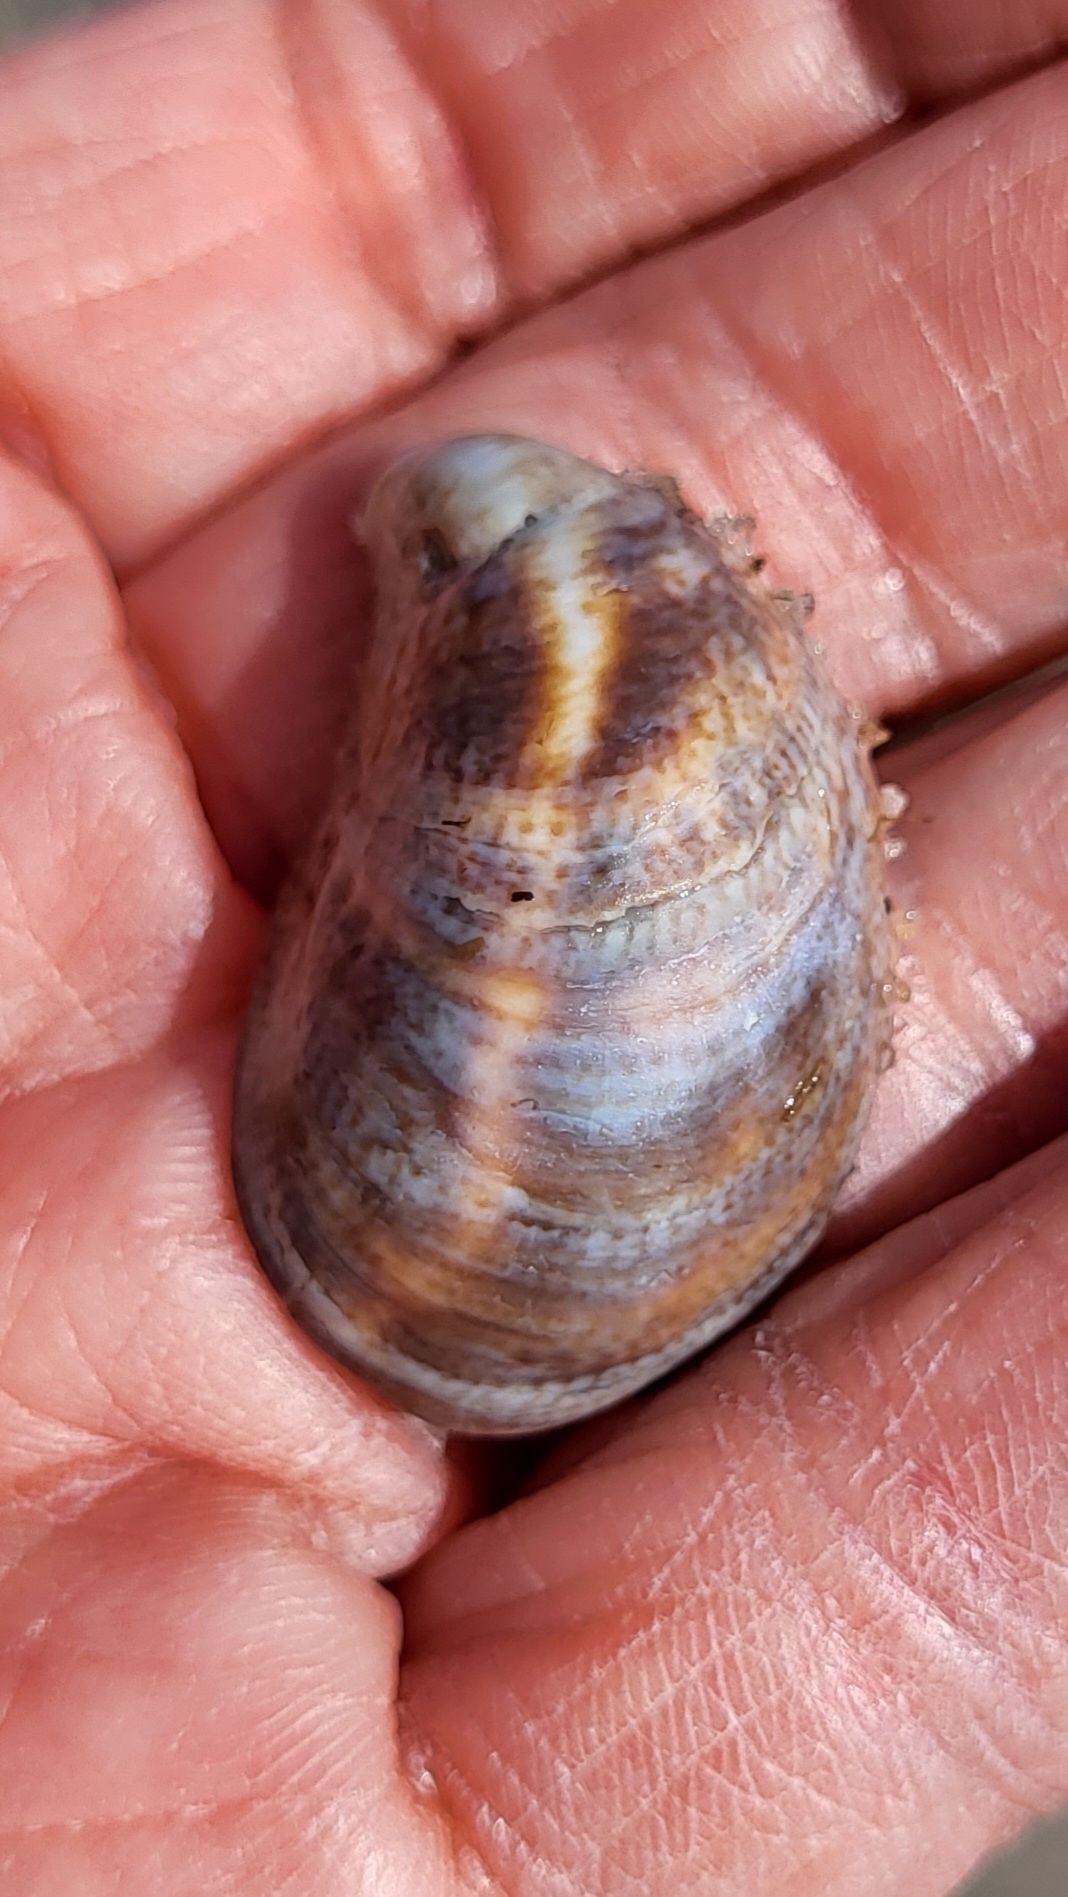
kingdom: Animalia
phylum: Mollusca
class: Gastropoda
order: Littorinimorpha
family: Calyptraeidae
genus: Crepidula
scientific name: Crepidula fornicata
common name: Slipper limpet
